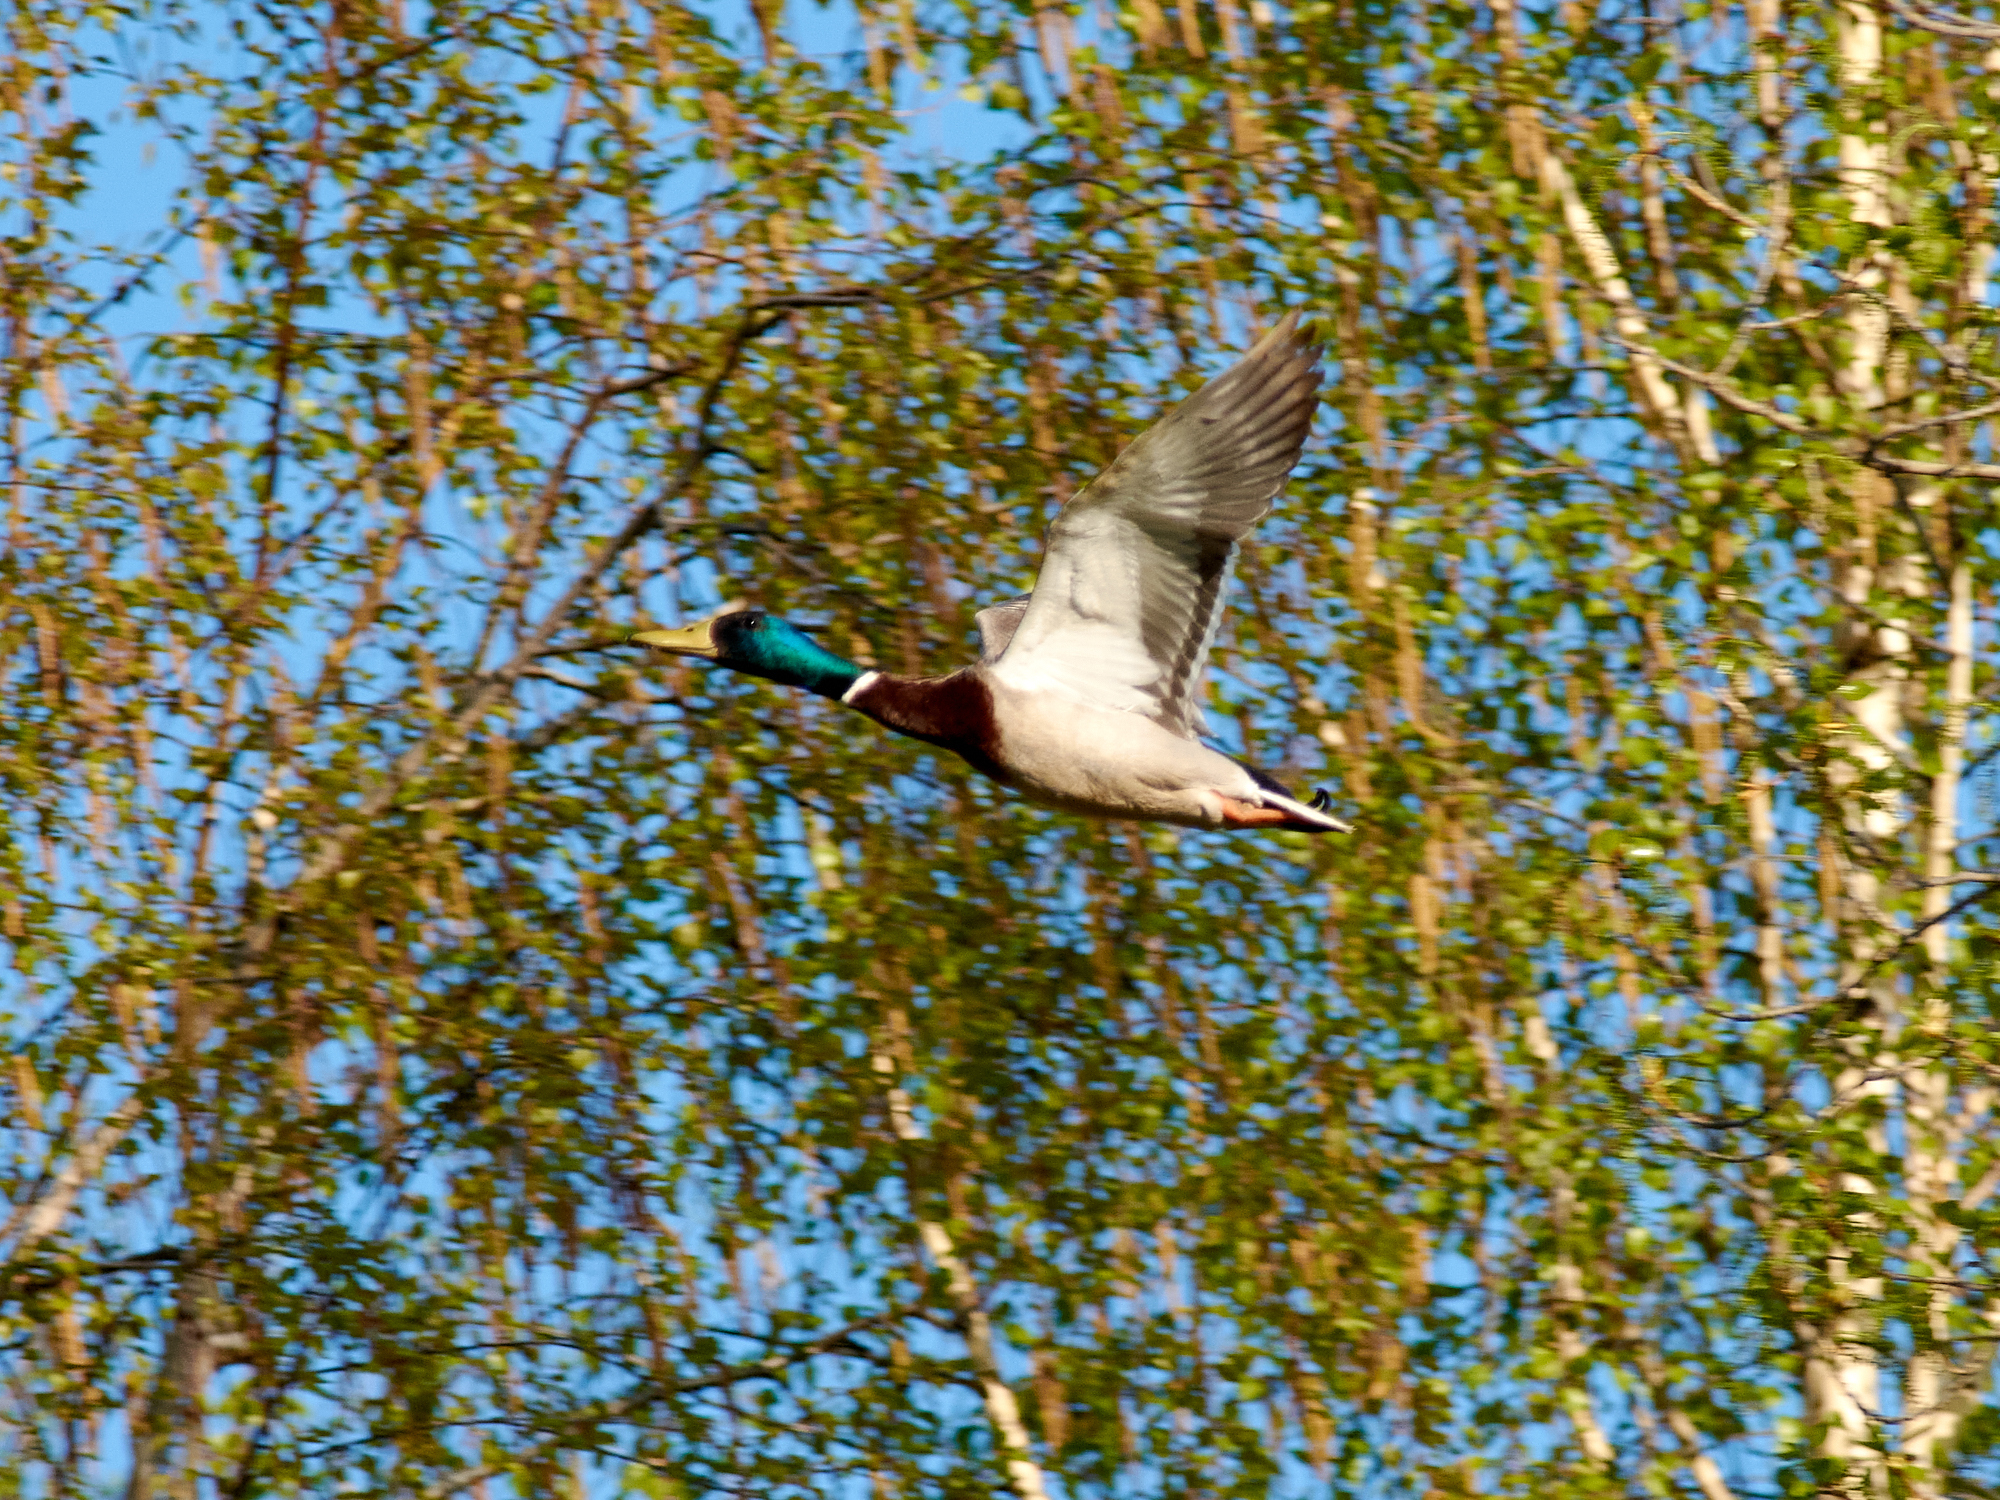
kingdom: Animalia
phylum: Chordata
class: Aves
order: Anseriformes
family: Anatidae
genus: Anas
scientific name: Anas platyrhynchos
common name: Mallard
